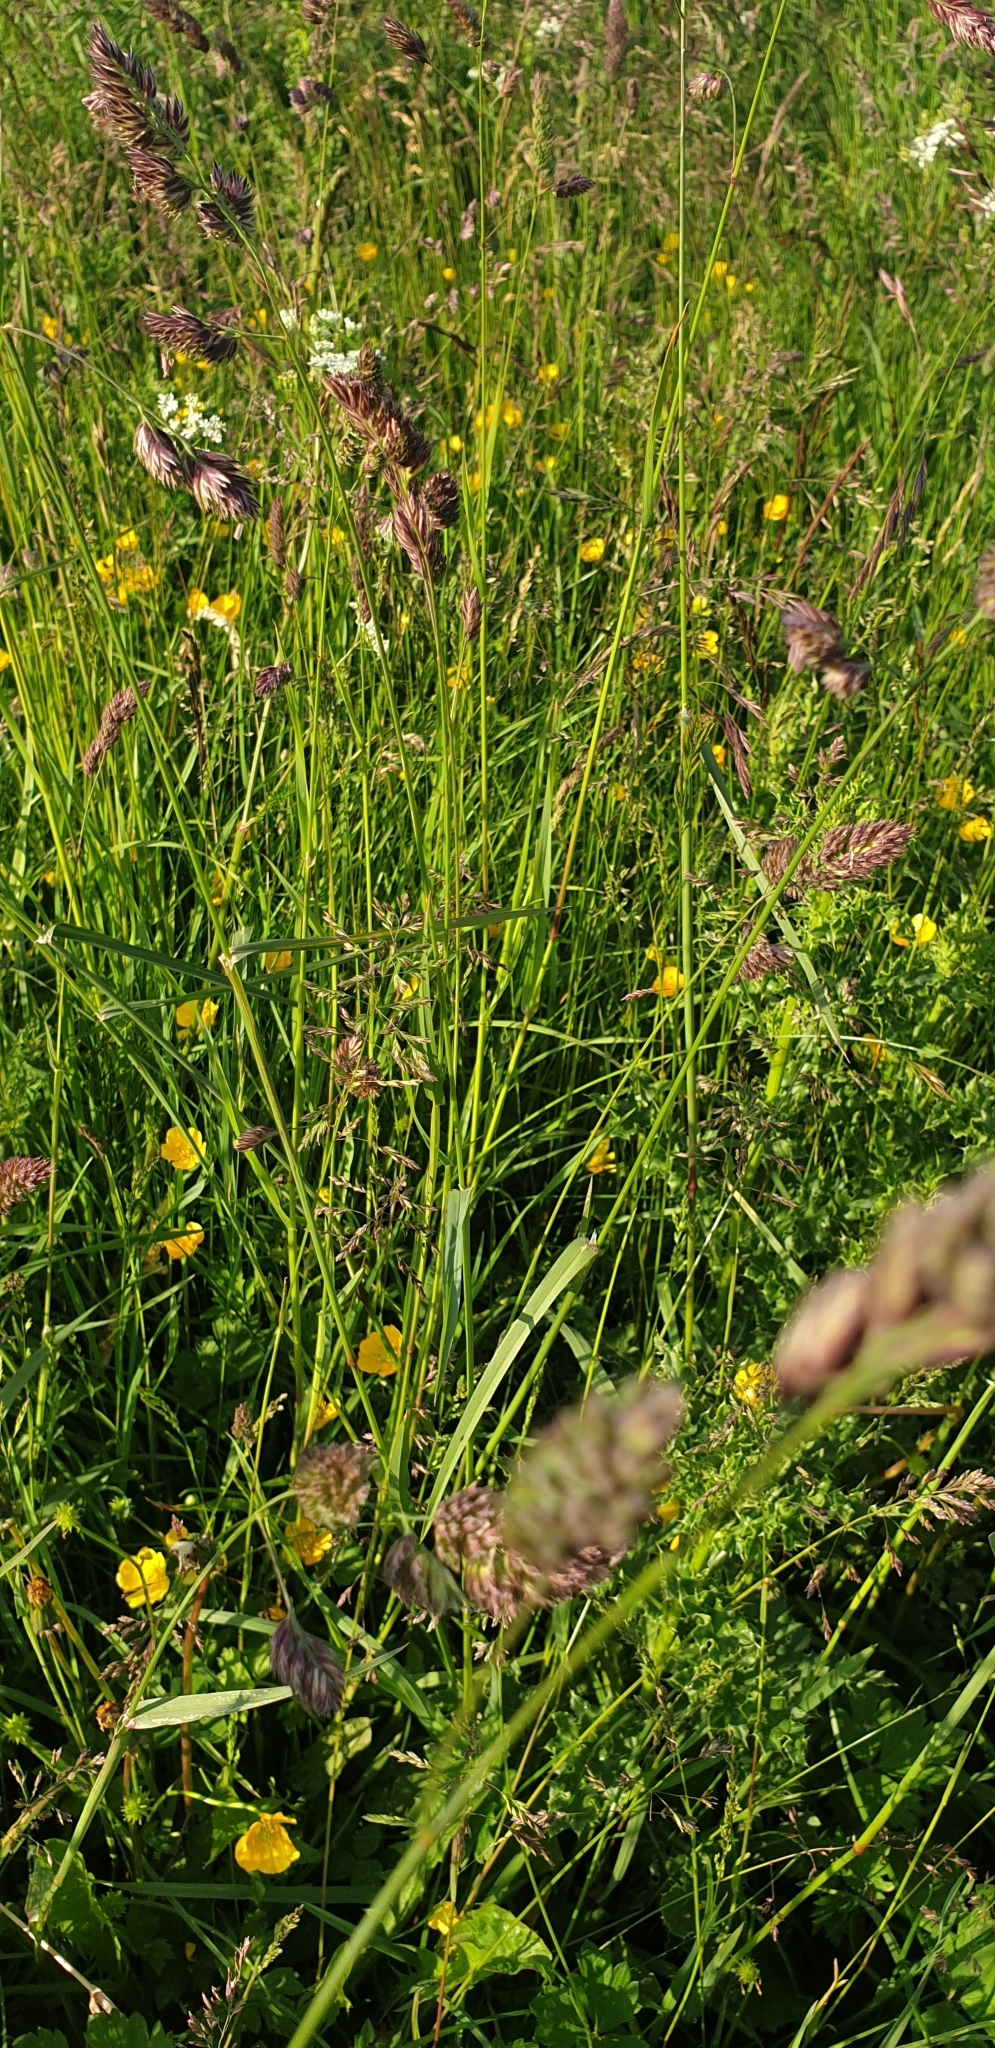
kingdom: Plantae
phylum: Tracheophyta
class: Liliopsida
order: Poales
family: Poaceae
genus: Dactylis
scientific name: Dactylis glomerata
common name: Orchardgrass
